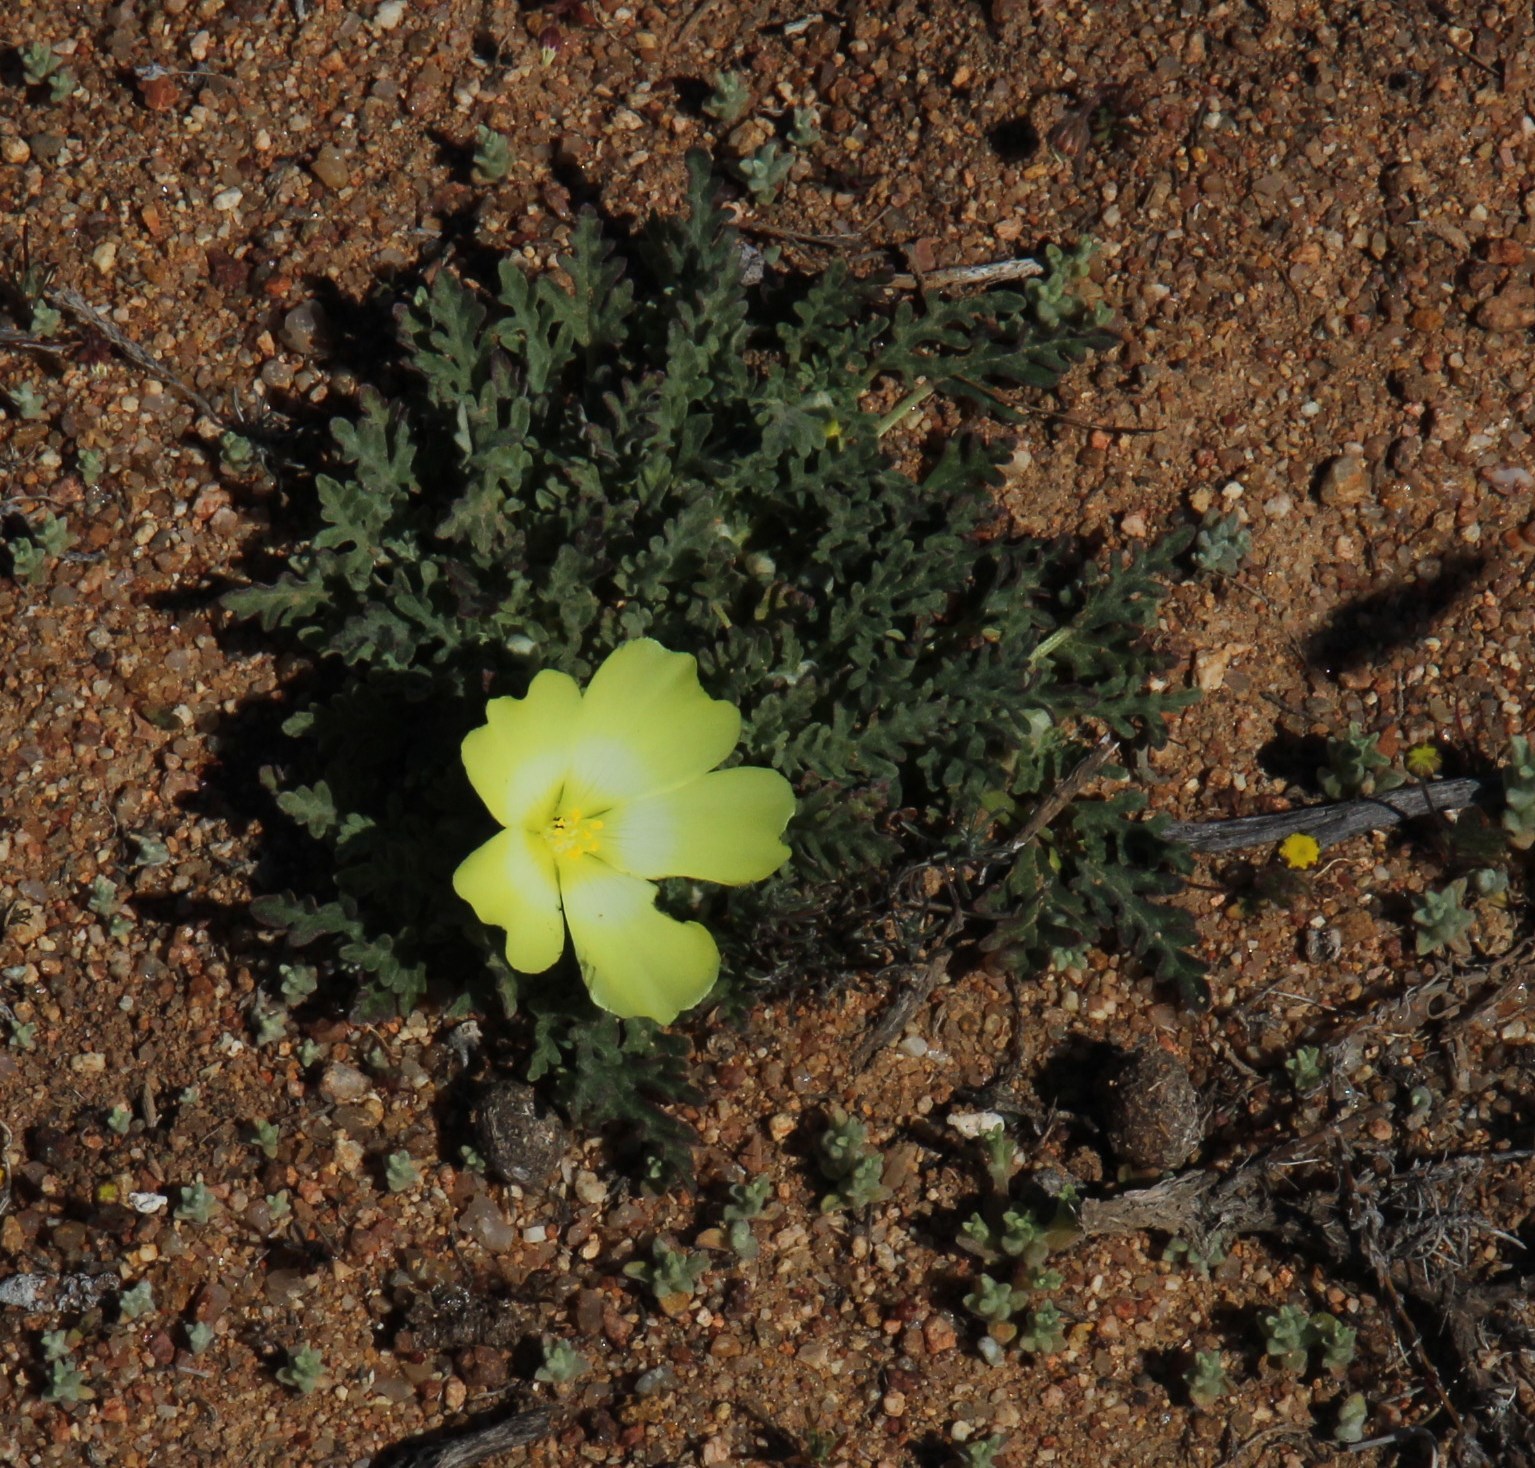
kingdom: Plantae
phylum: Tracheophyta
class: Magnoliopsida
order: Malvales
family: Neuradaceae
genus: Grielum
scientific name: Grielum humifusum
